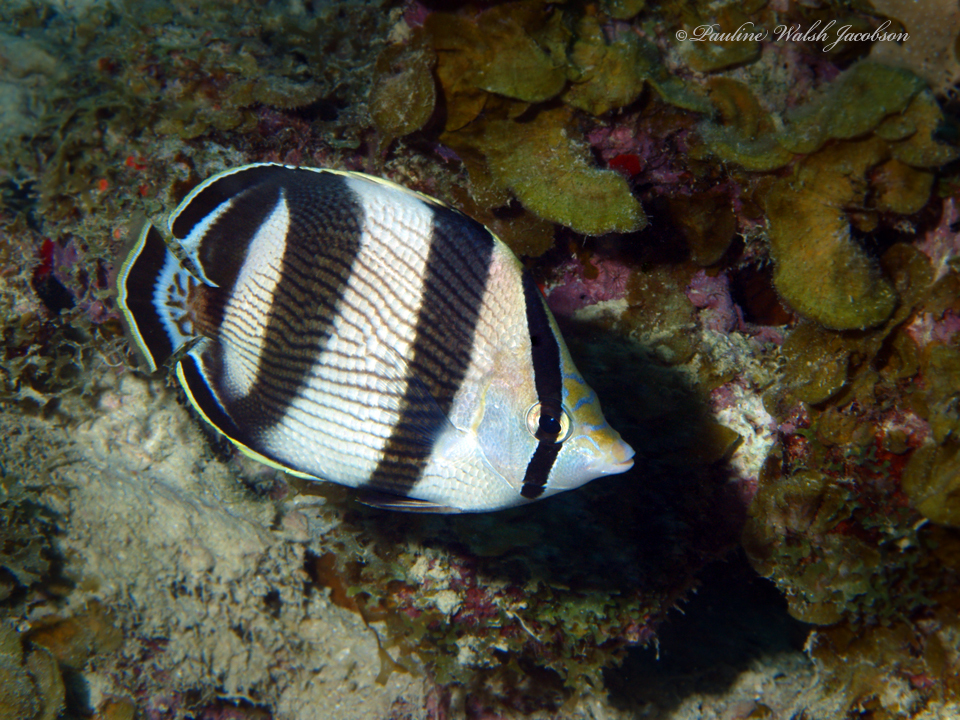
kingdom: Animalia
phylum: Chordata
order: Perciformes
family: Chaetodontidae
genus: Chaetodon
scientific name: Chaetodon striatus
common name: Banded butterflyfish
